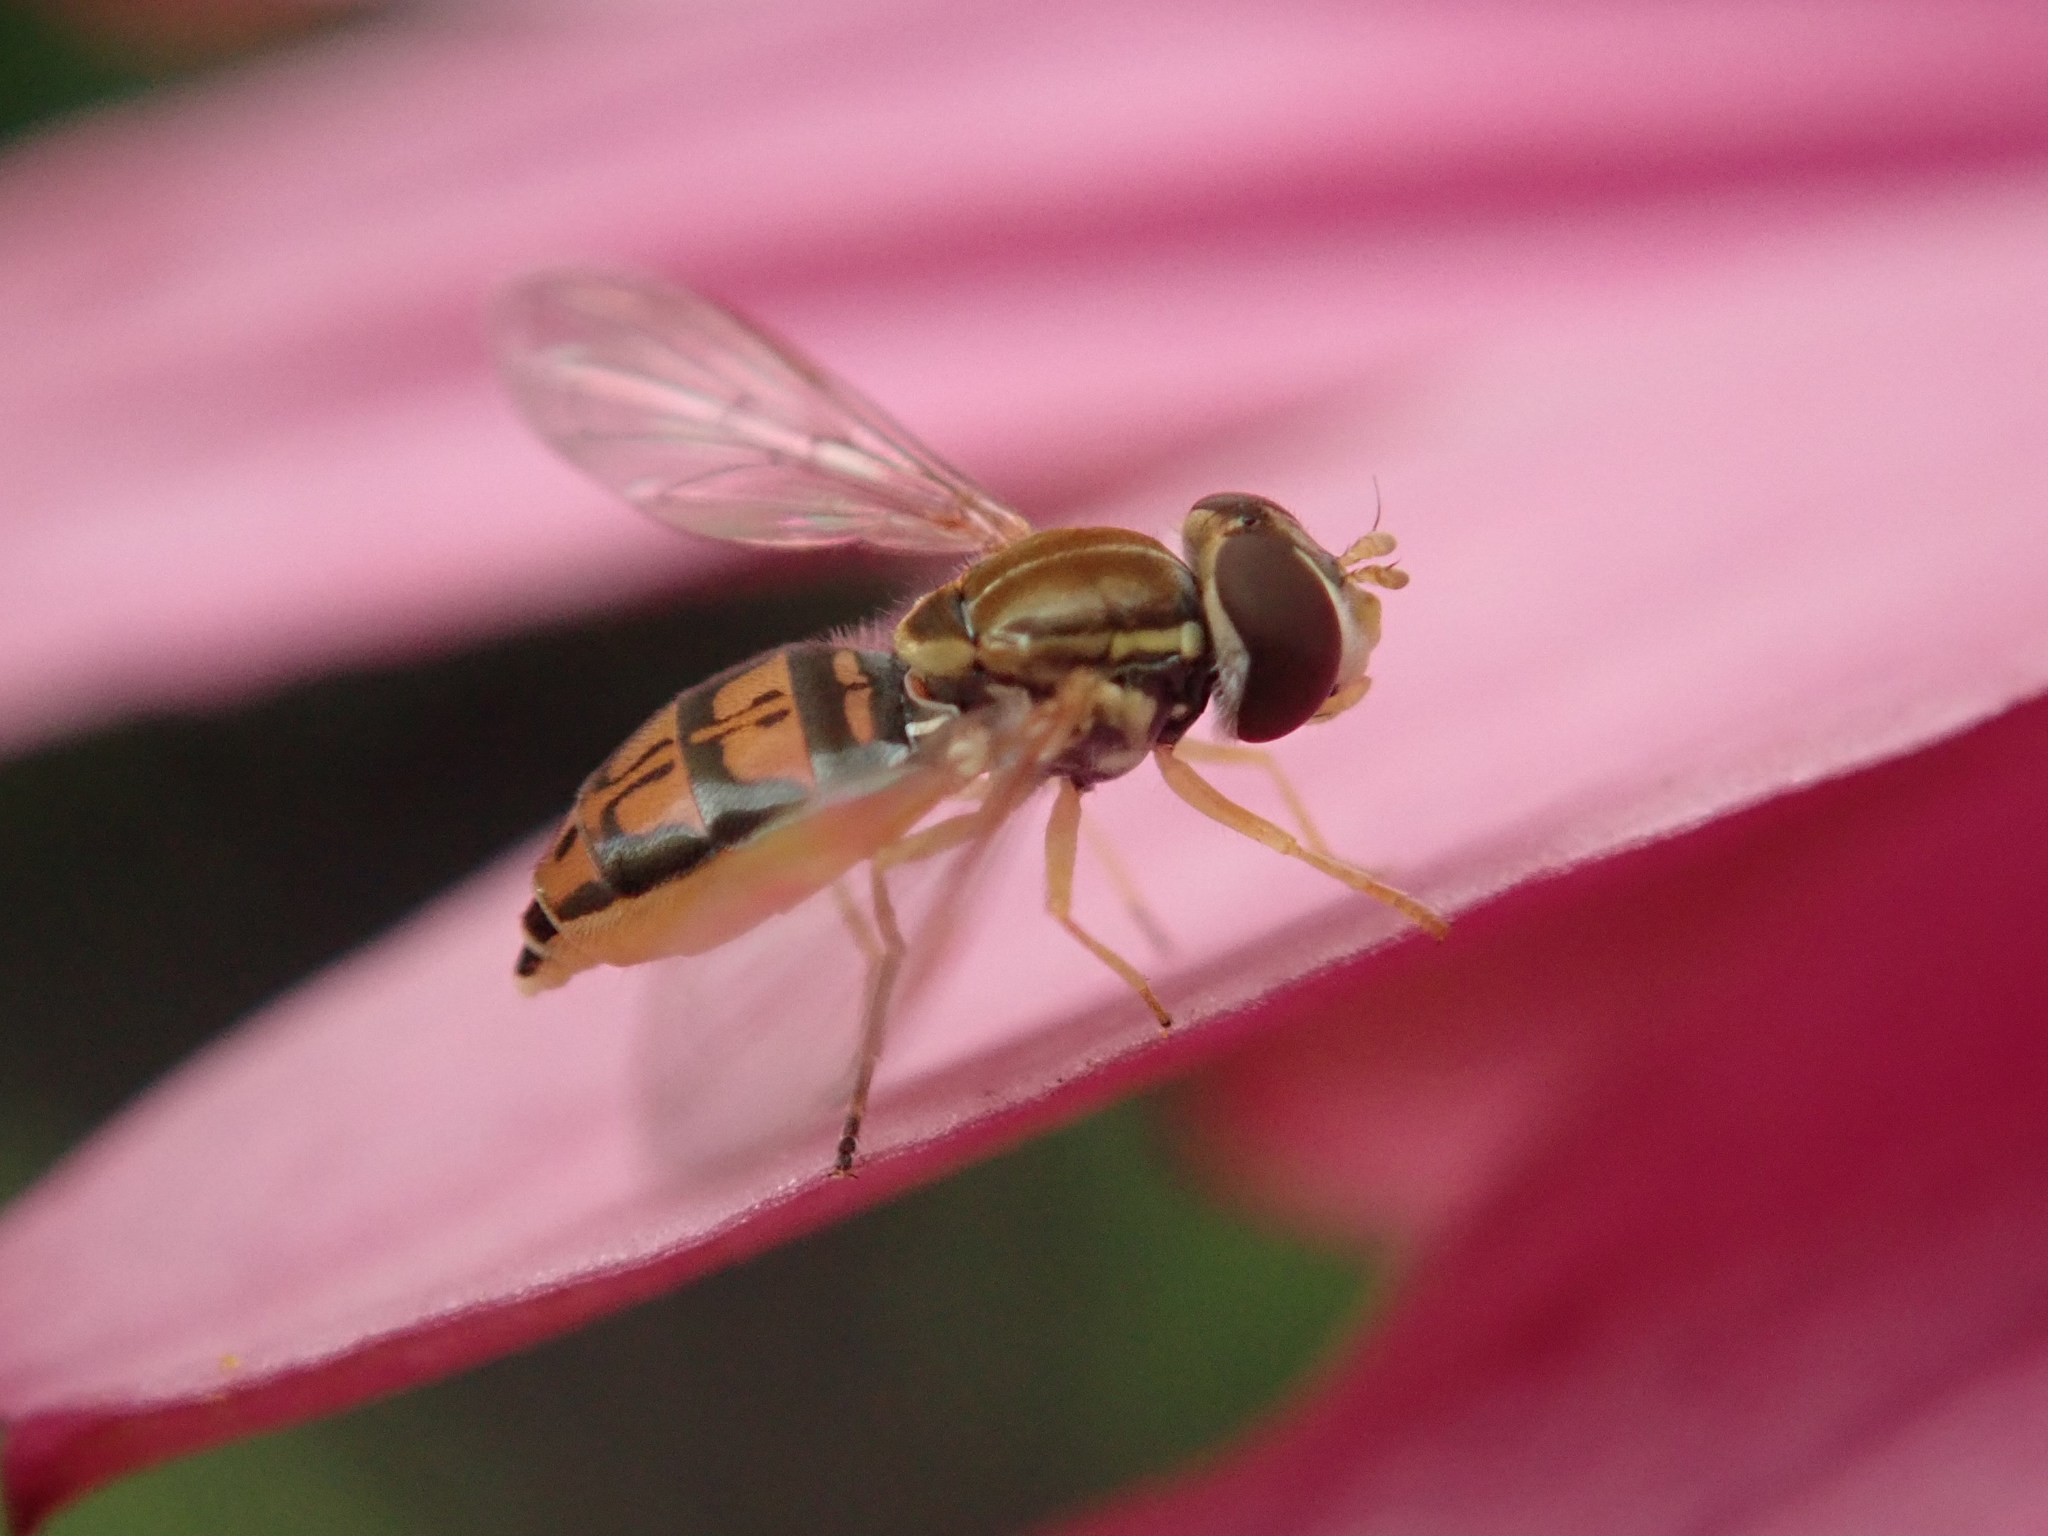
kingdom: Animalia
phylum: Arthropoda
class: Insecta
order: Diptera
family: Syrphidae
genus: Toxomerus
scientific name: Toxomerus marginatus
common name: Syrphid fly
